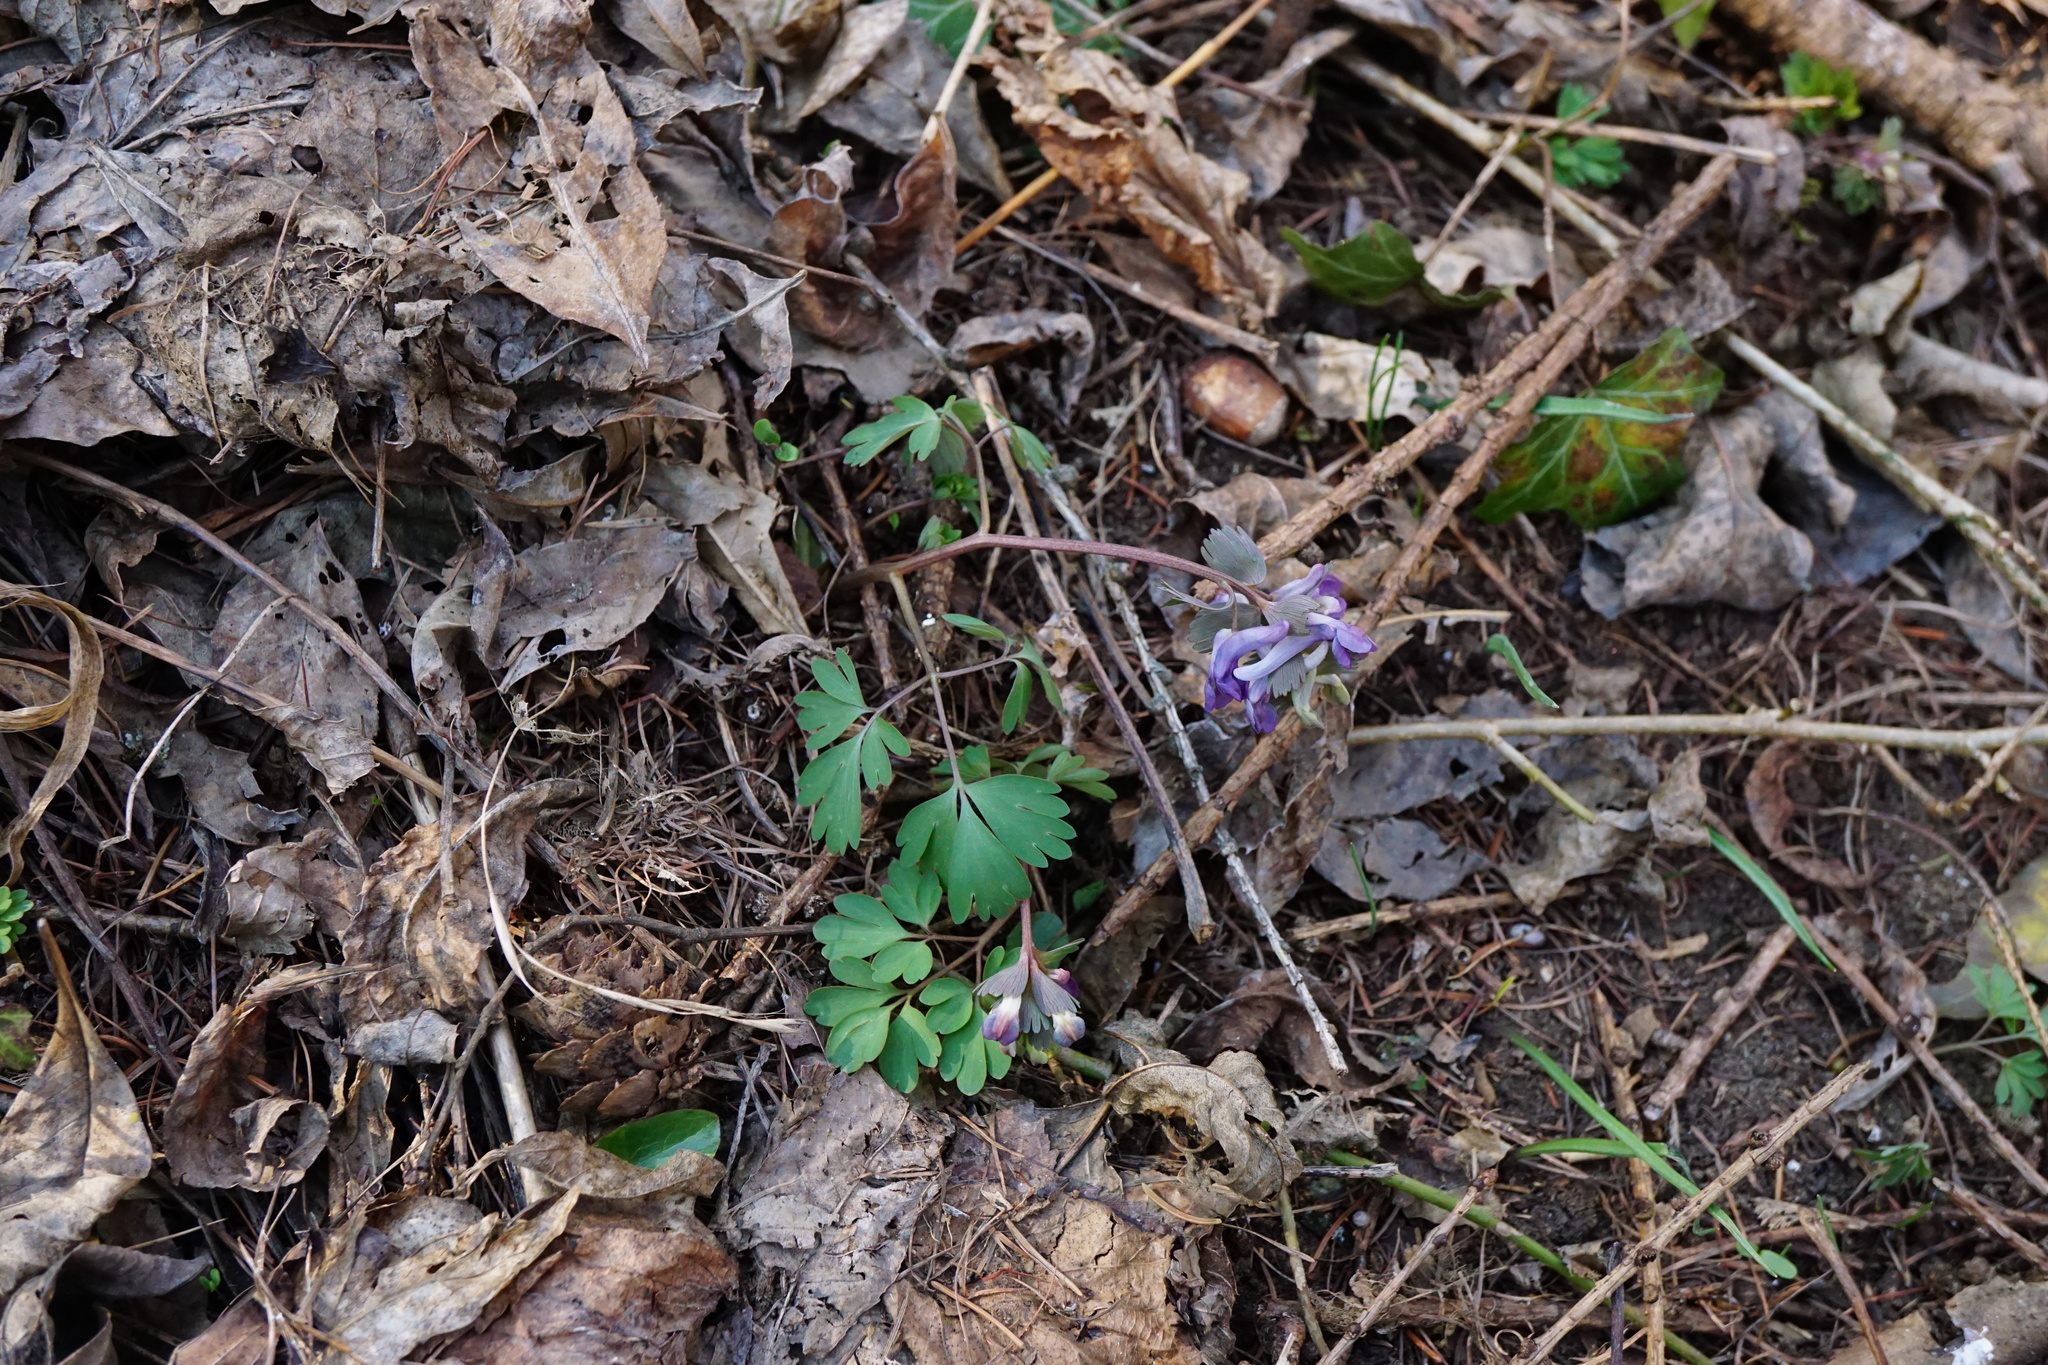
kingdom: Plantae
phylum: Tracheophyta
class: Magnoliopsida
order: Ranunculales
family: Papaveraceae
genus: Corydalis
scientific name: Corydalis solida
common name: Bird-in-a-bush
